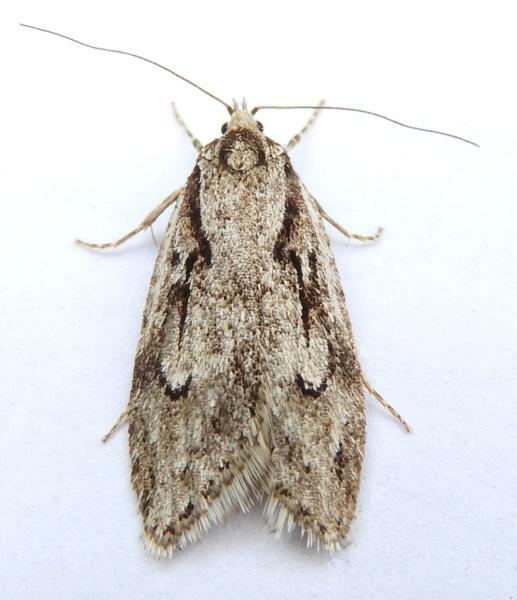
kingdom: Animalia
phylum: Arthropoda
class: Insecta
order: Lepidoptera
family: Depressariidae
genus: Semioscopis
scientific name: Semioscopis aurorella
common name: Aurora flatbody moth
